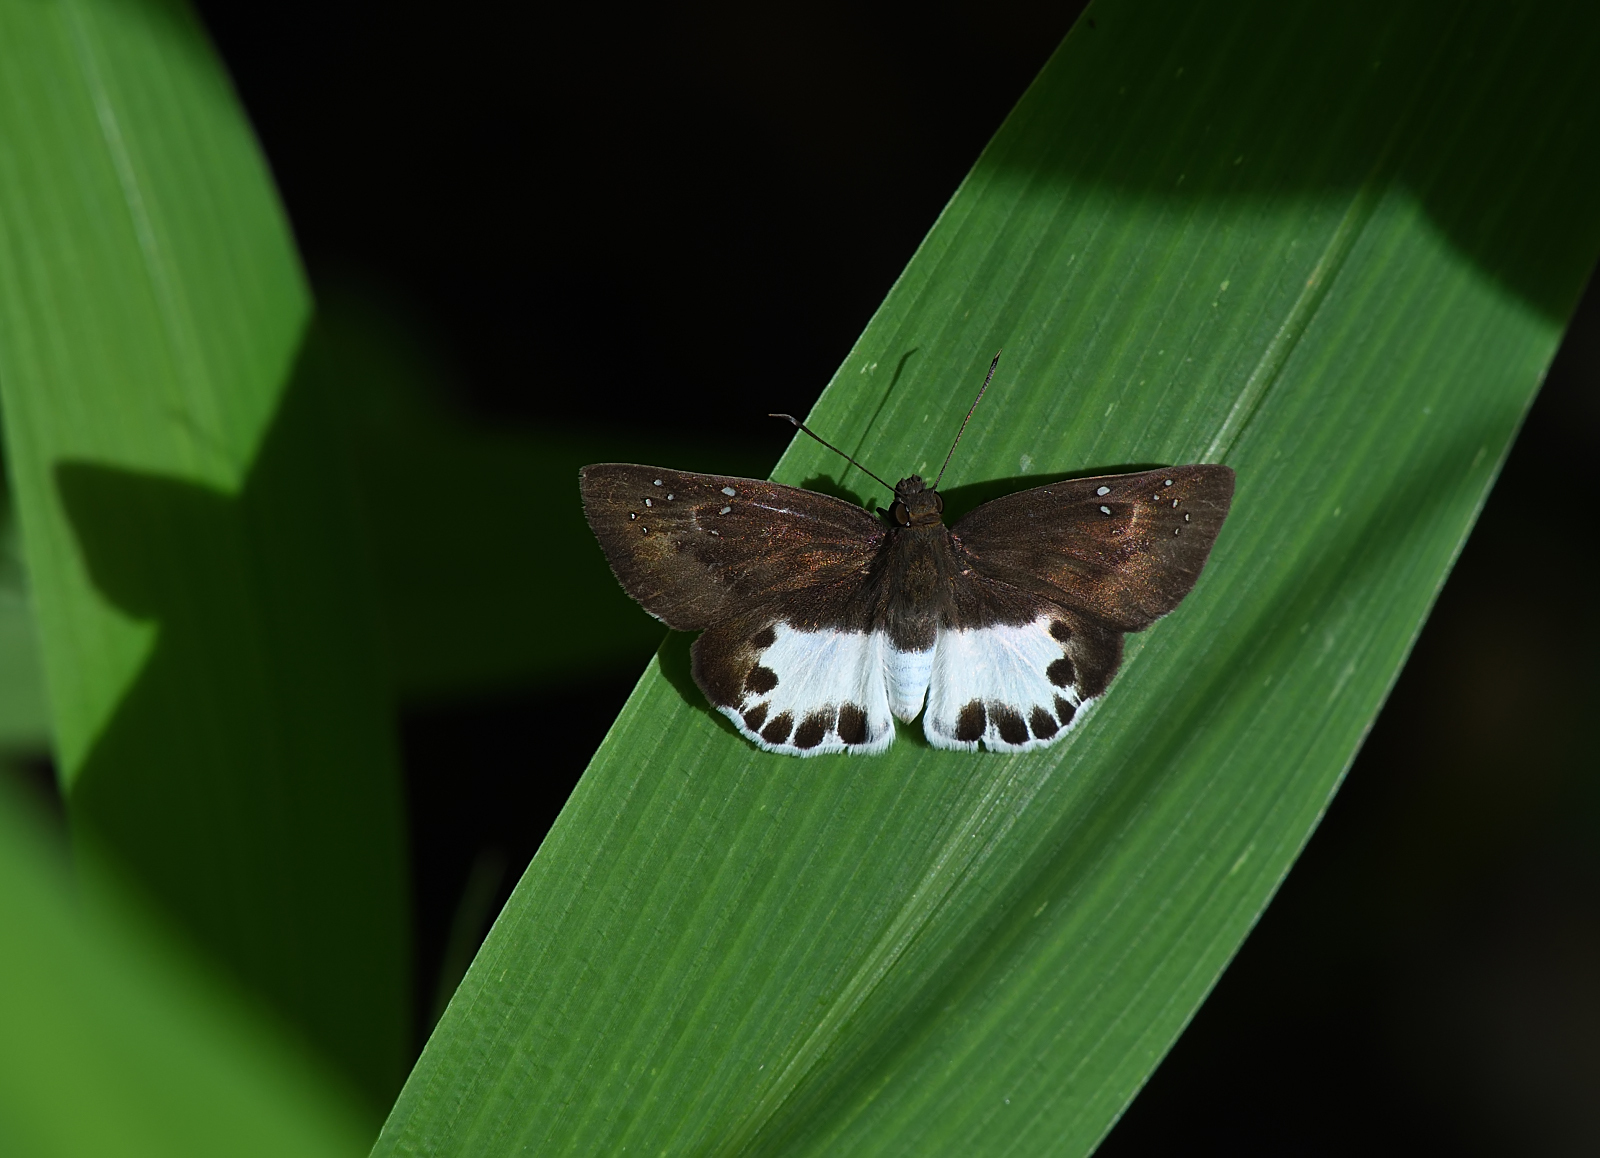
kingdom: Animalia
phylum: Arthropoda
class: Insecta
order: Lepidoptera
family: Hesperiidae
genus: Tagiades
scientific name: Tagiades litigiosa
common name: Water snow flat
